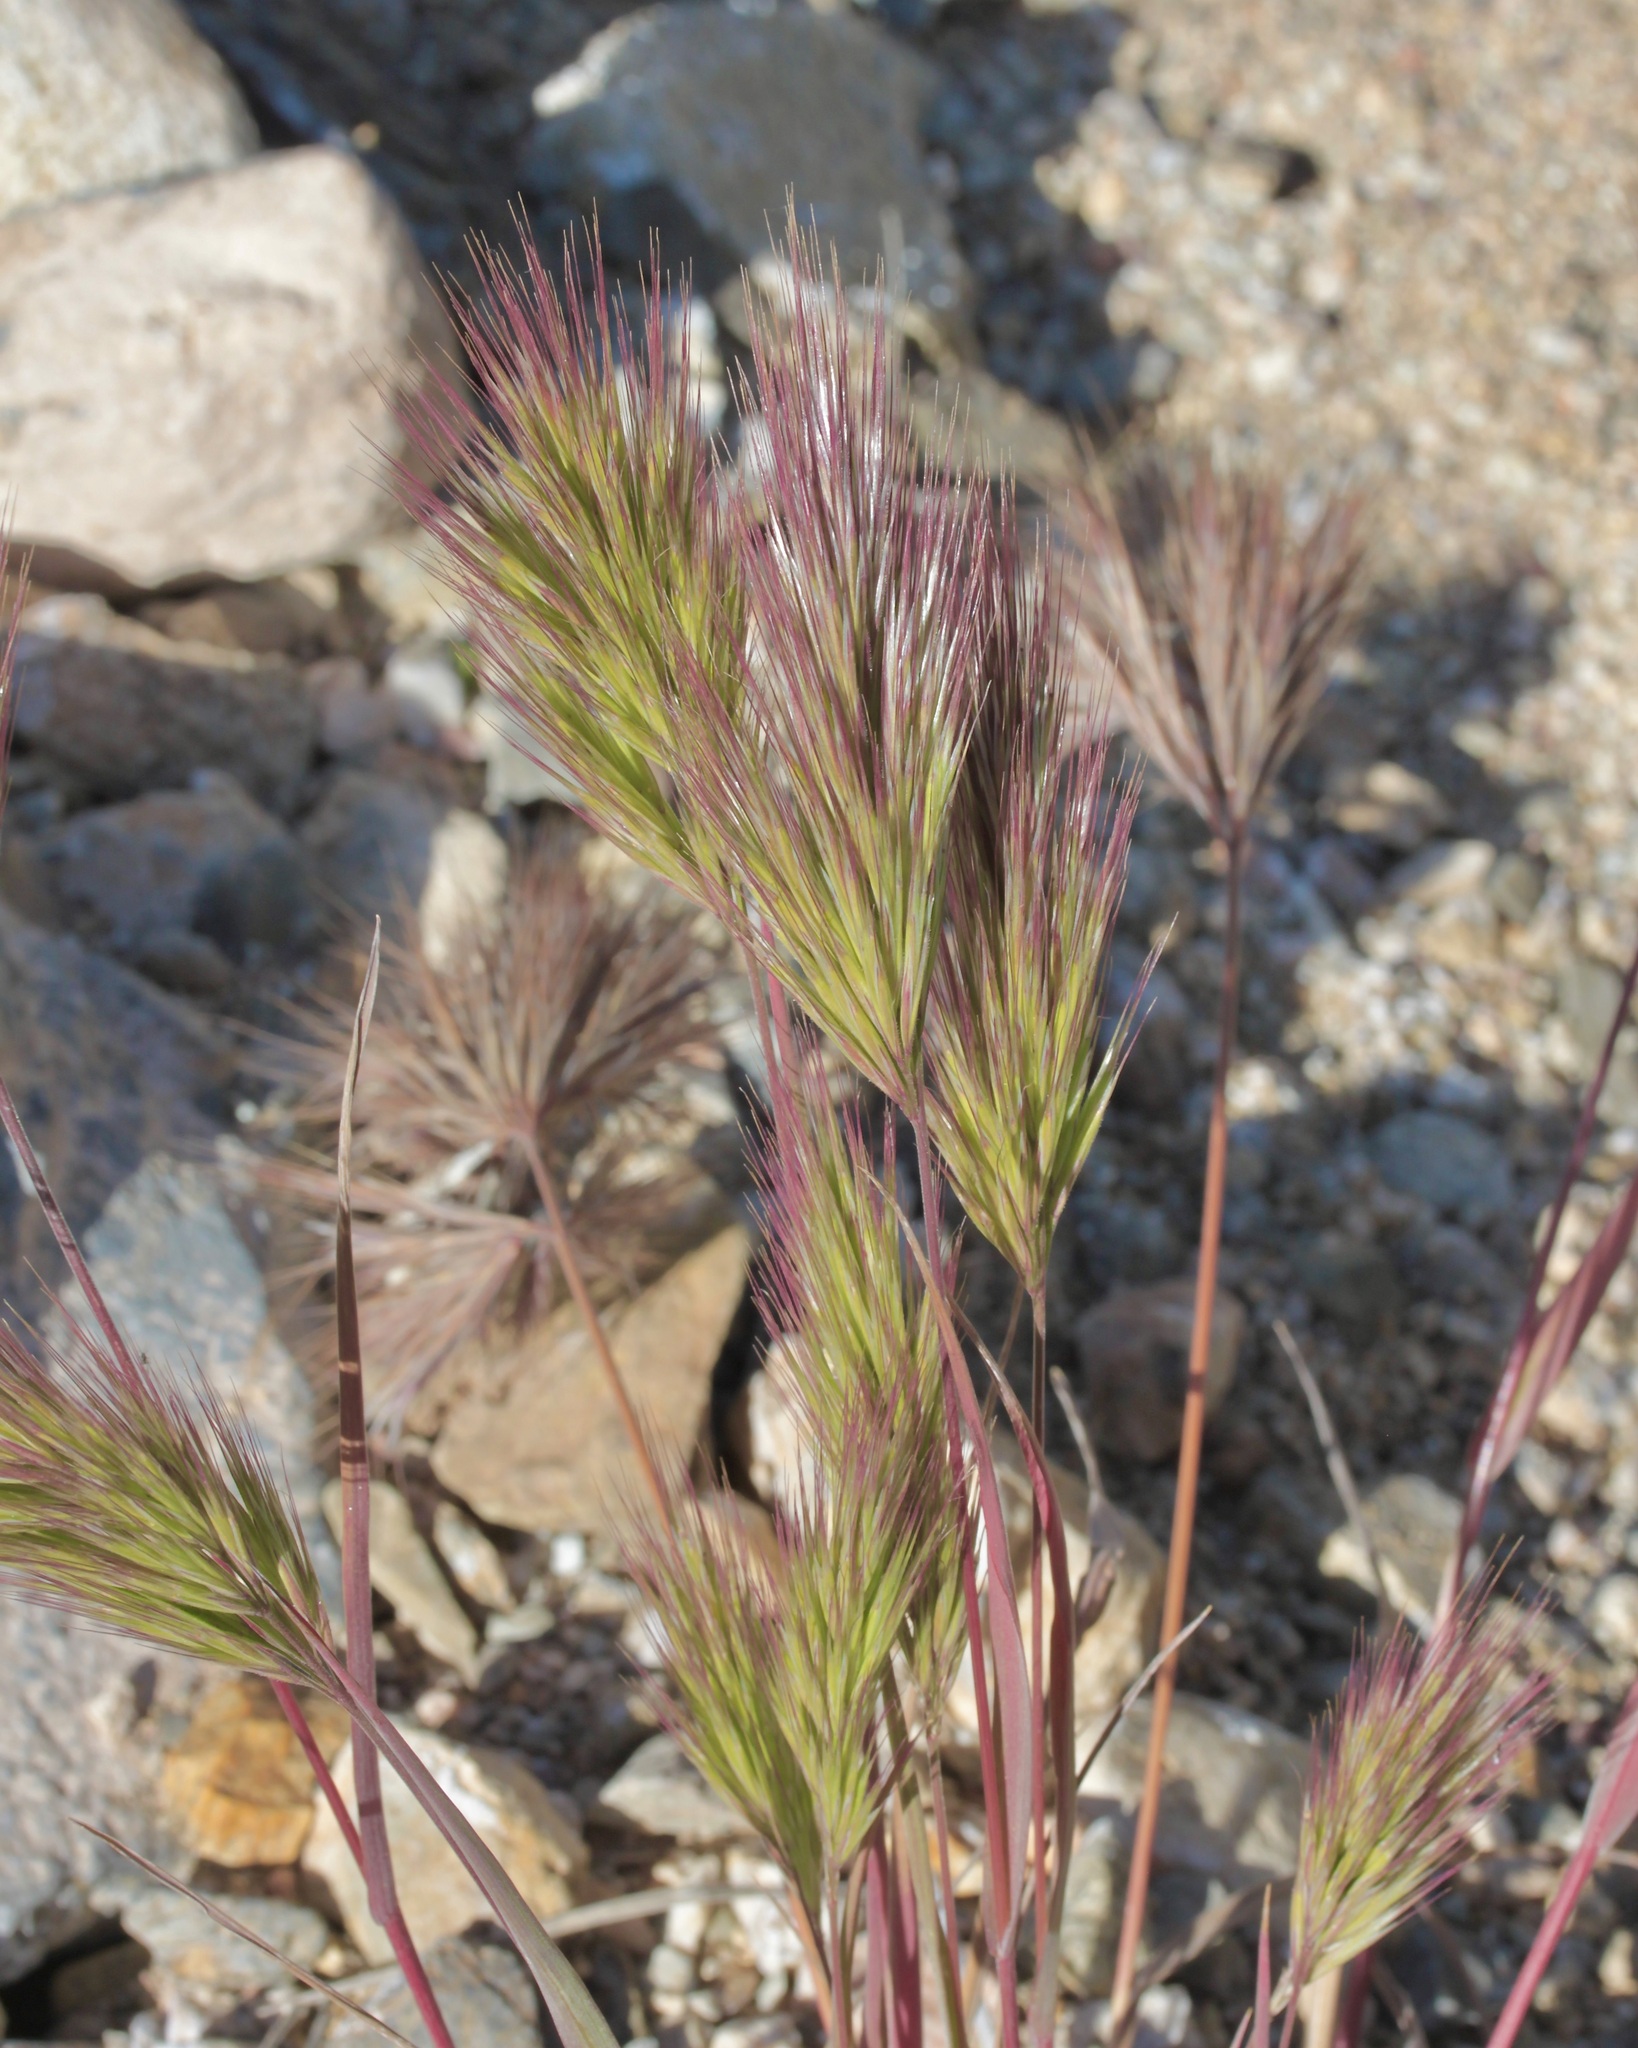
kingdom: Plantae
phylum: Tracheophyta
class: Liliopsida
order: Poales
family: Poaceae
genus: Bromus
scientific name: Bromus rubens
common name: Red brome
